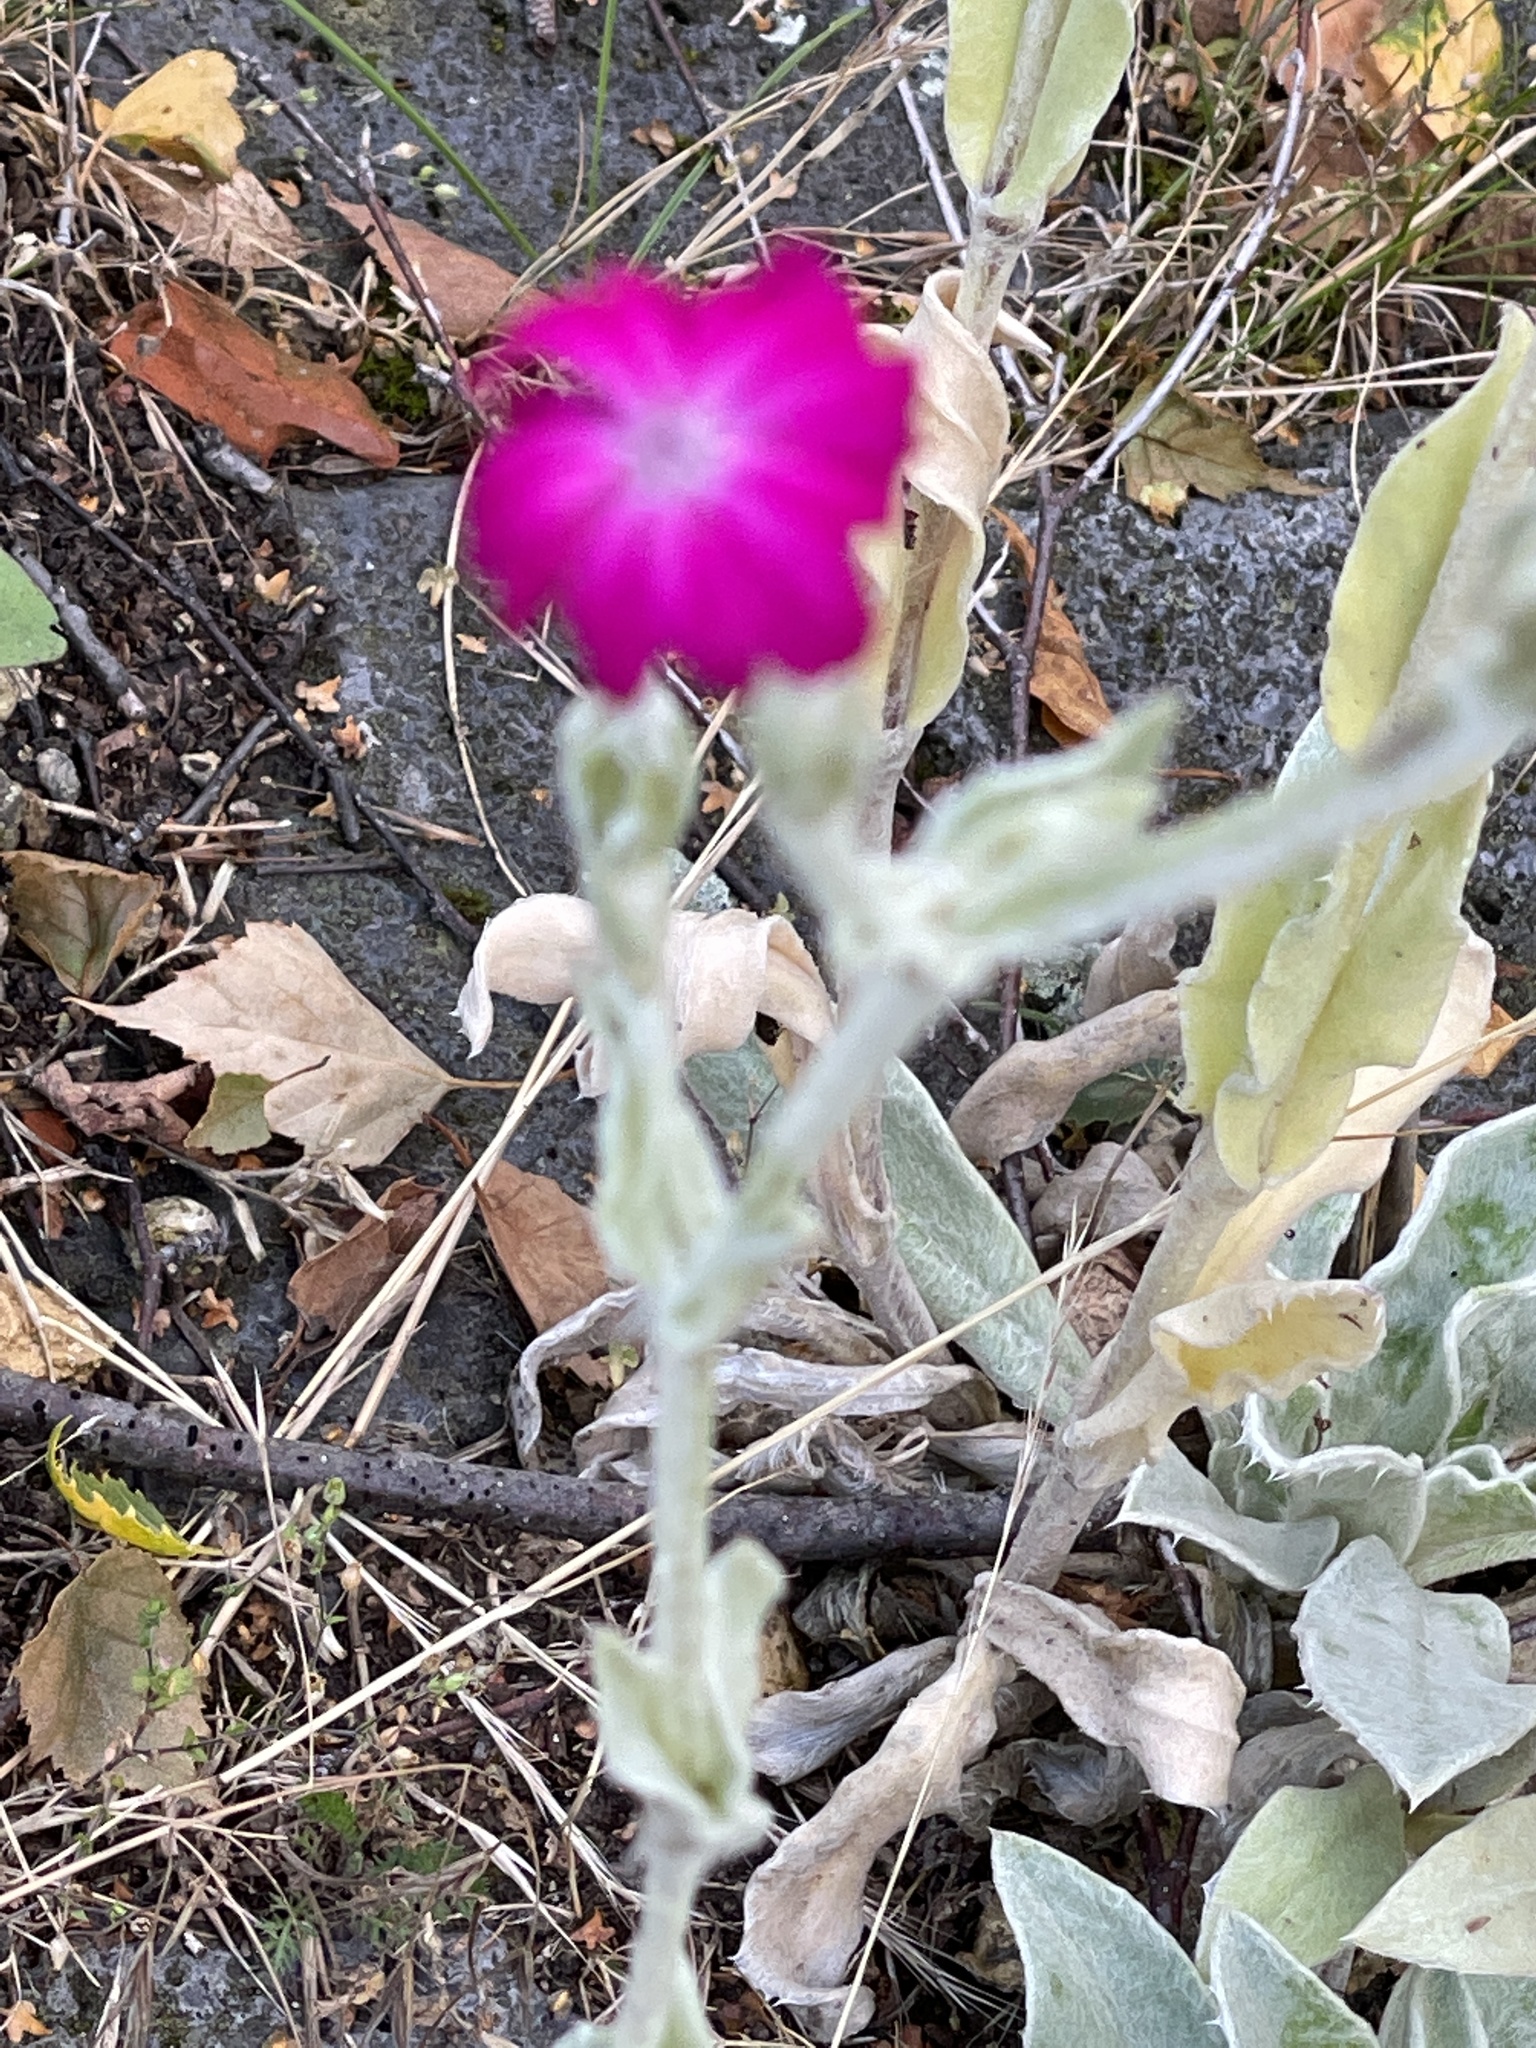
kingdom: Plantae
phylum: Tracheophyta
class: Magnoliopsida
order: Caryophyllales
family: Caryophyllaceae
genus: Silene
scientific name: Silene coronaria
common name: Rose campion
